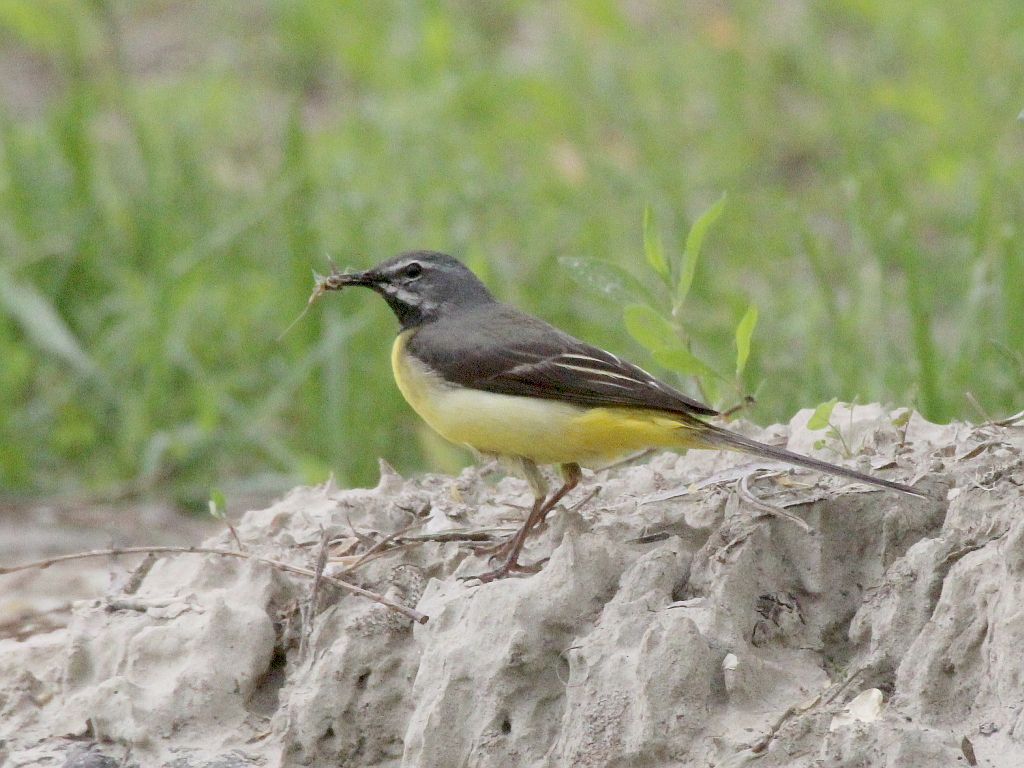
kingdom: Animalia
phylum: Chordata
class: Aves
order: Passeriformes
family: Motacillidae
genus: Motacilla
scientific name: Motacilla cinerea
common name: Grey wagtail
